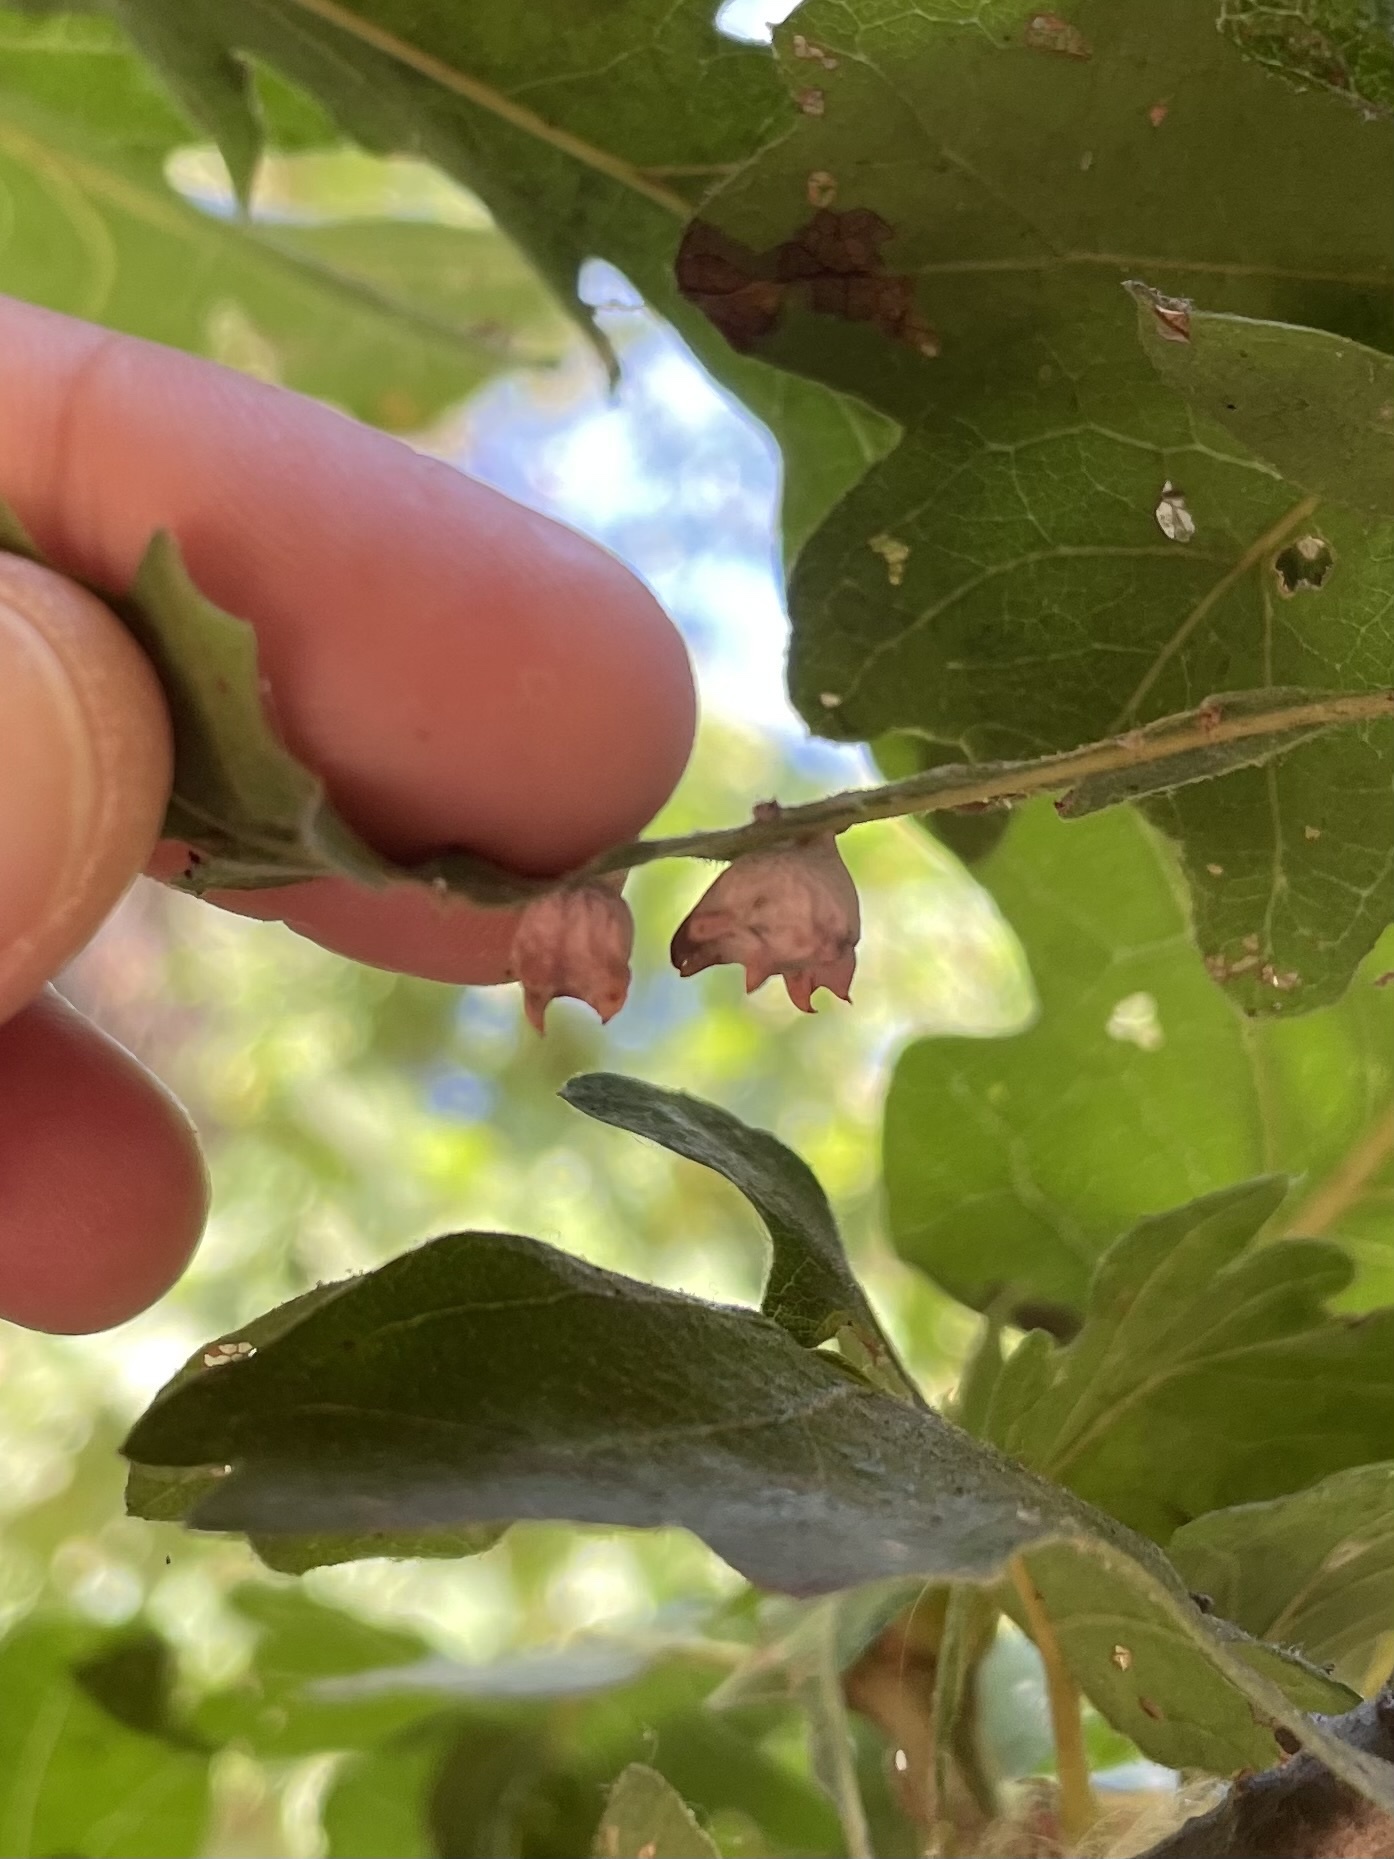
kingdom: Animalia
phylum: Arthropoda
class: Insecta
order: Hymenoptera
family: Cynipidae
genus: Cynips
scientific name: Cynips douglasi
